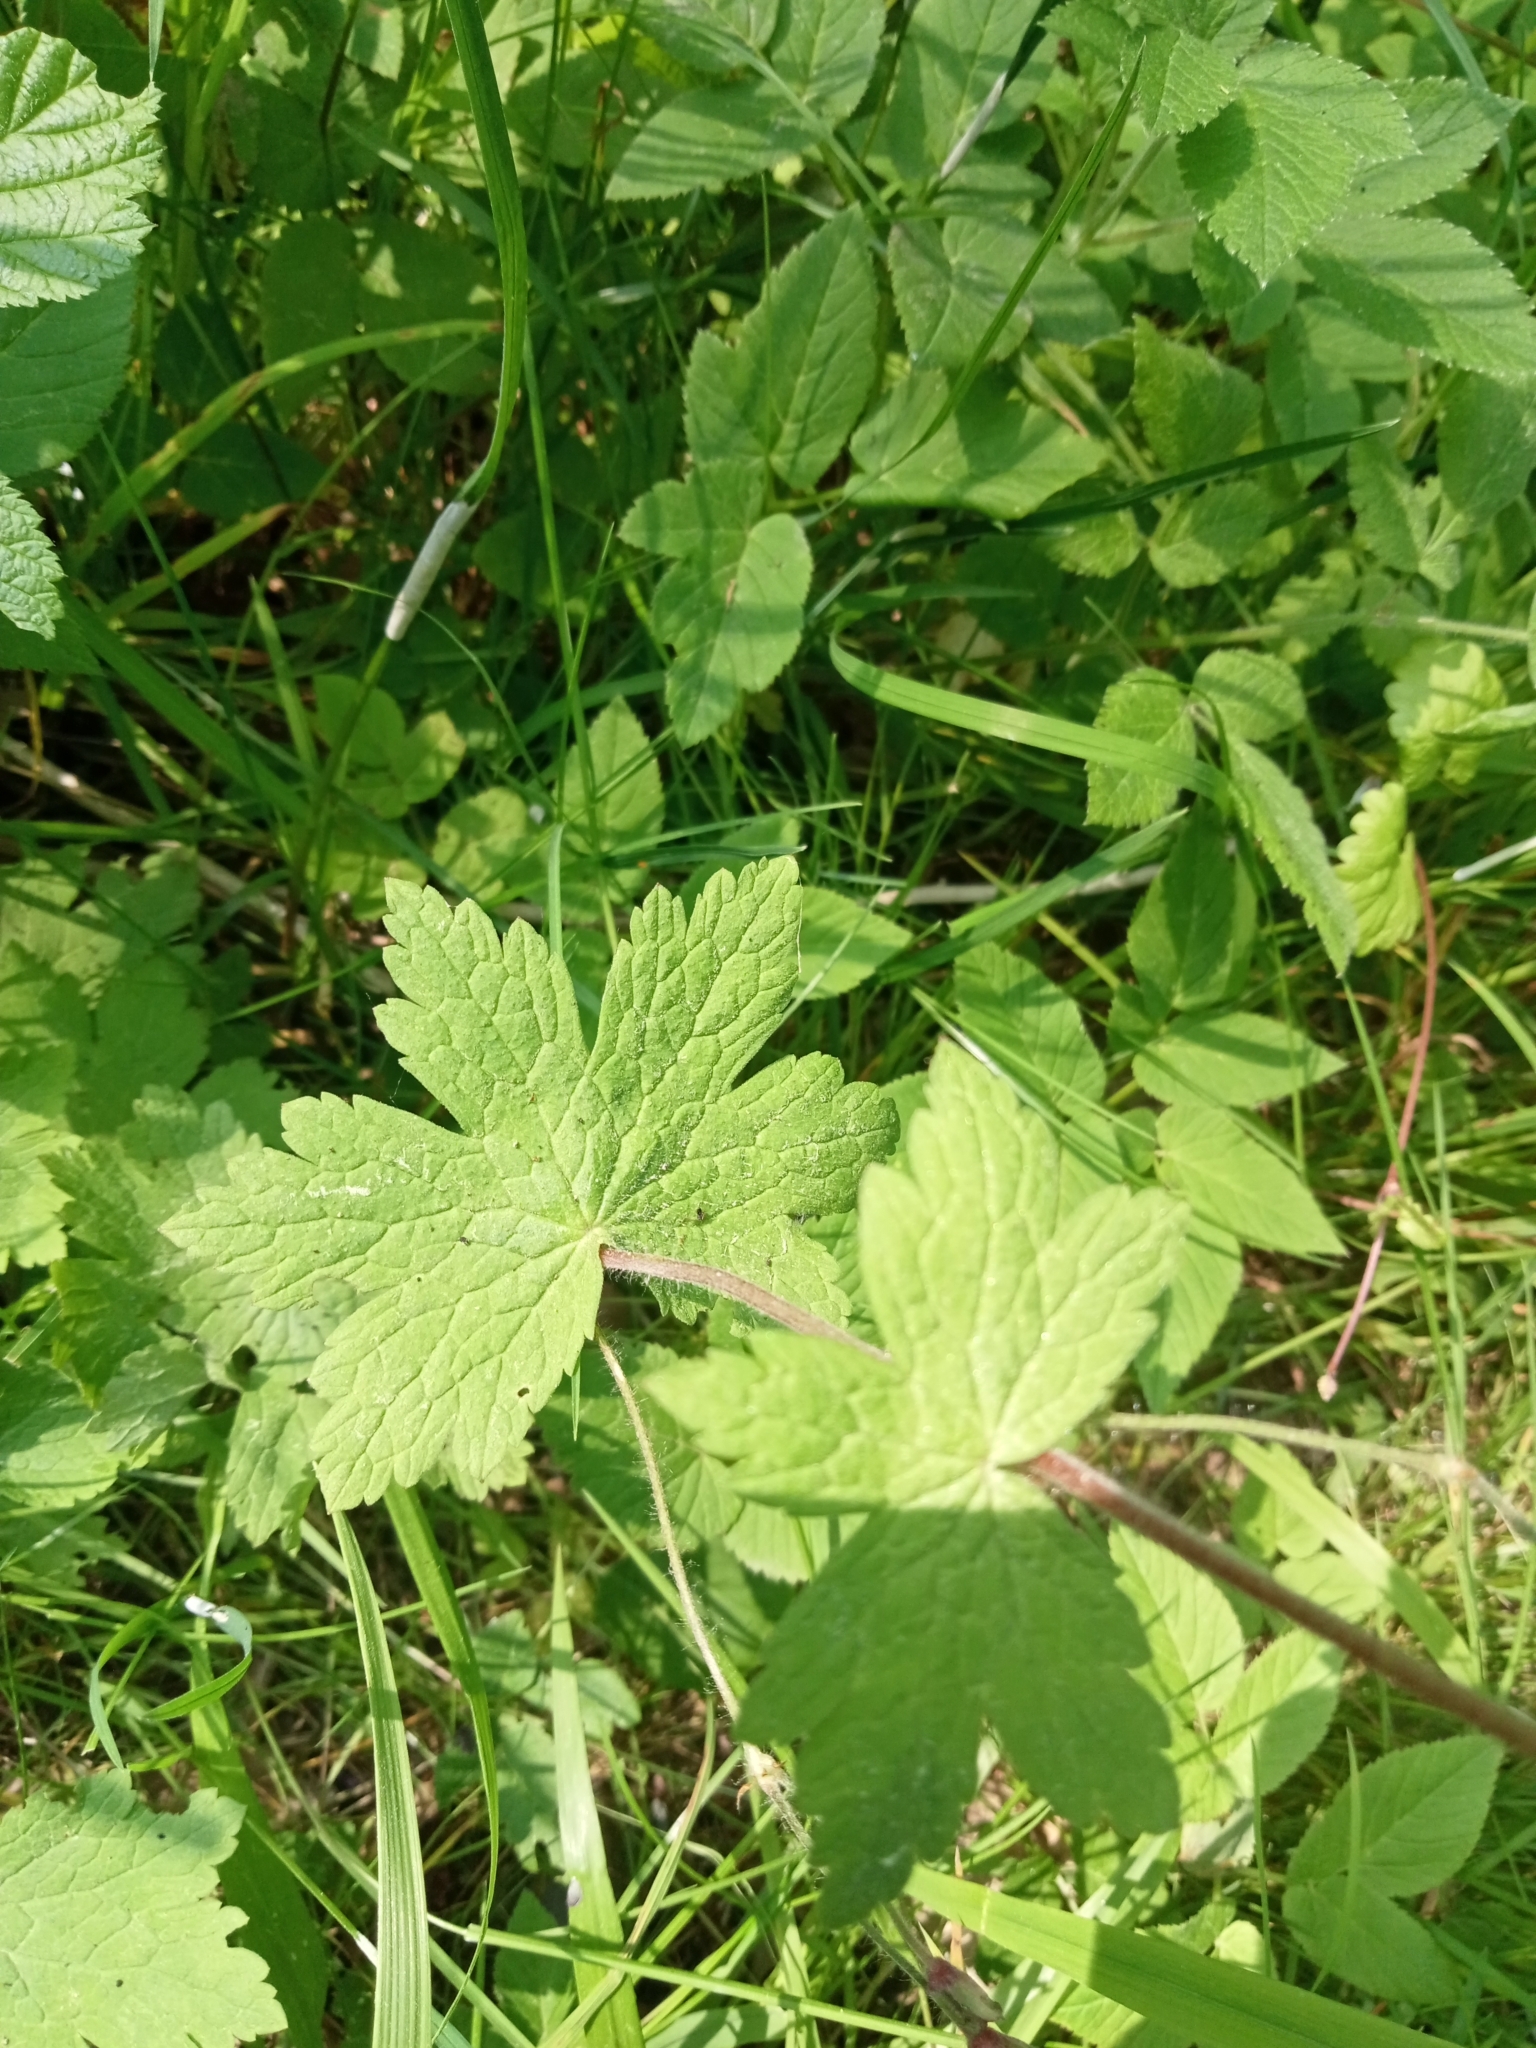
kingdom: Plantae
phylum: Tracheophyta
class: Magnoliopsida
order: Geraniales
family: Geraniaceae
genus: Geranium
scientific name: Geranium phaeum
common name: Dusky crane's-bill
